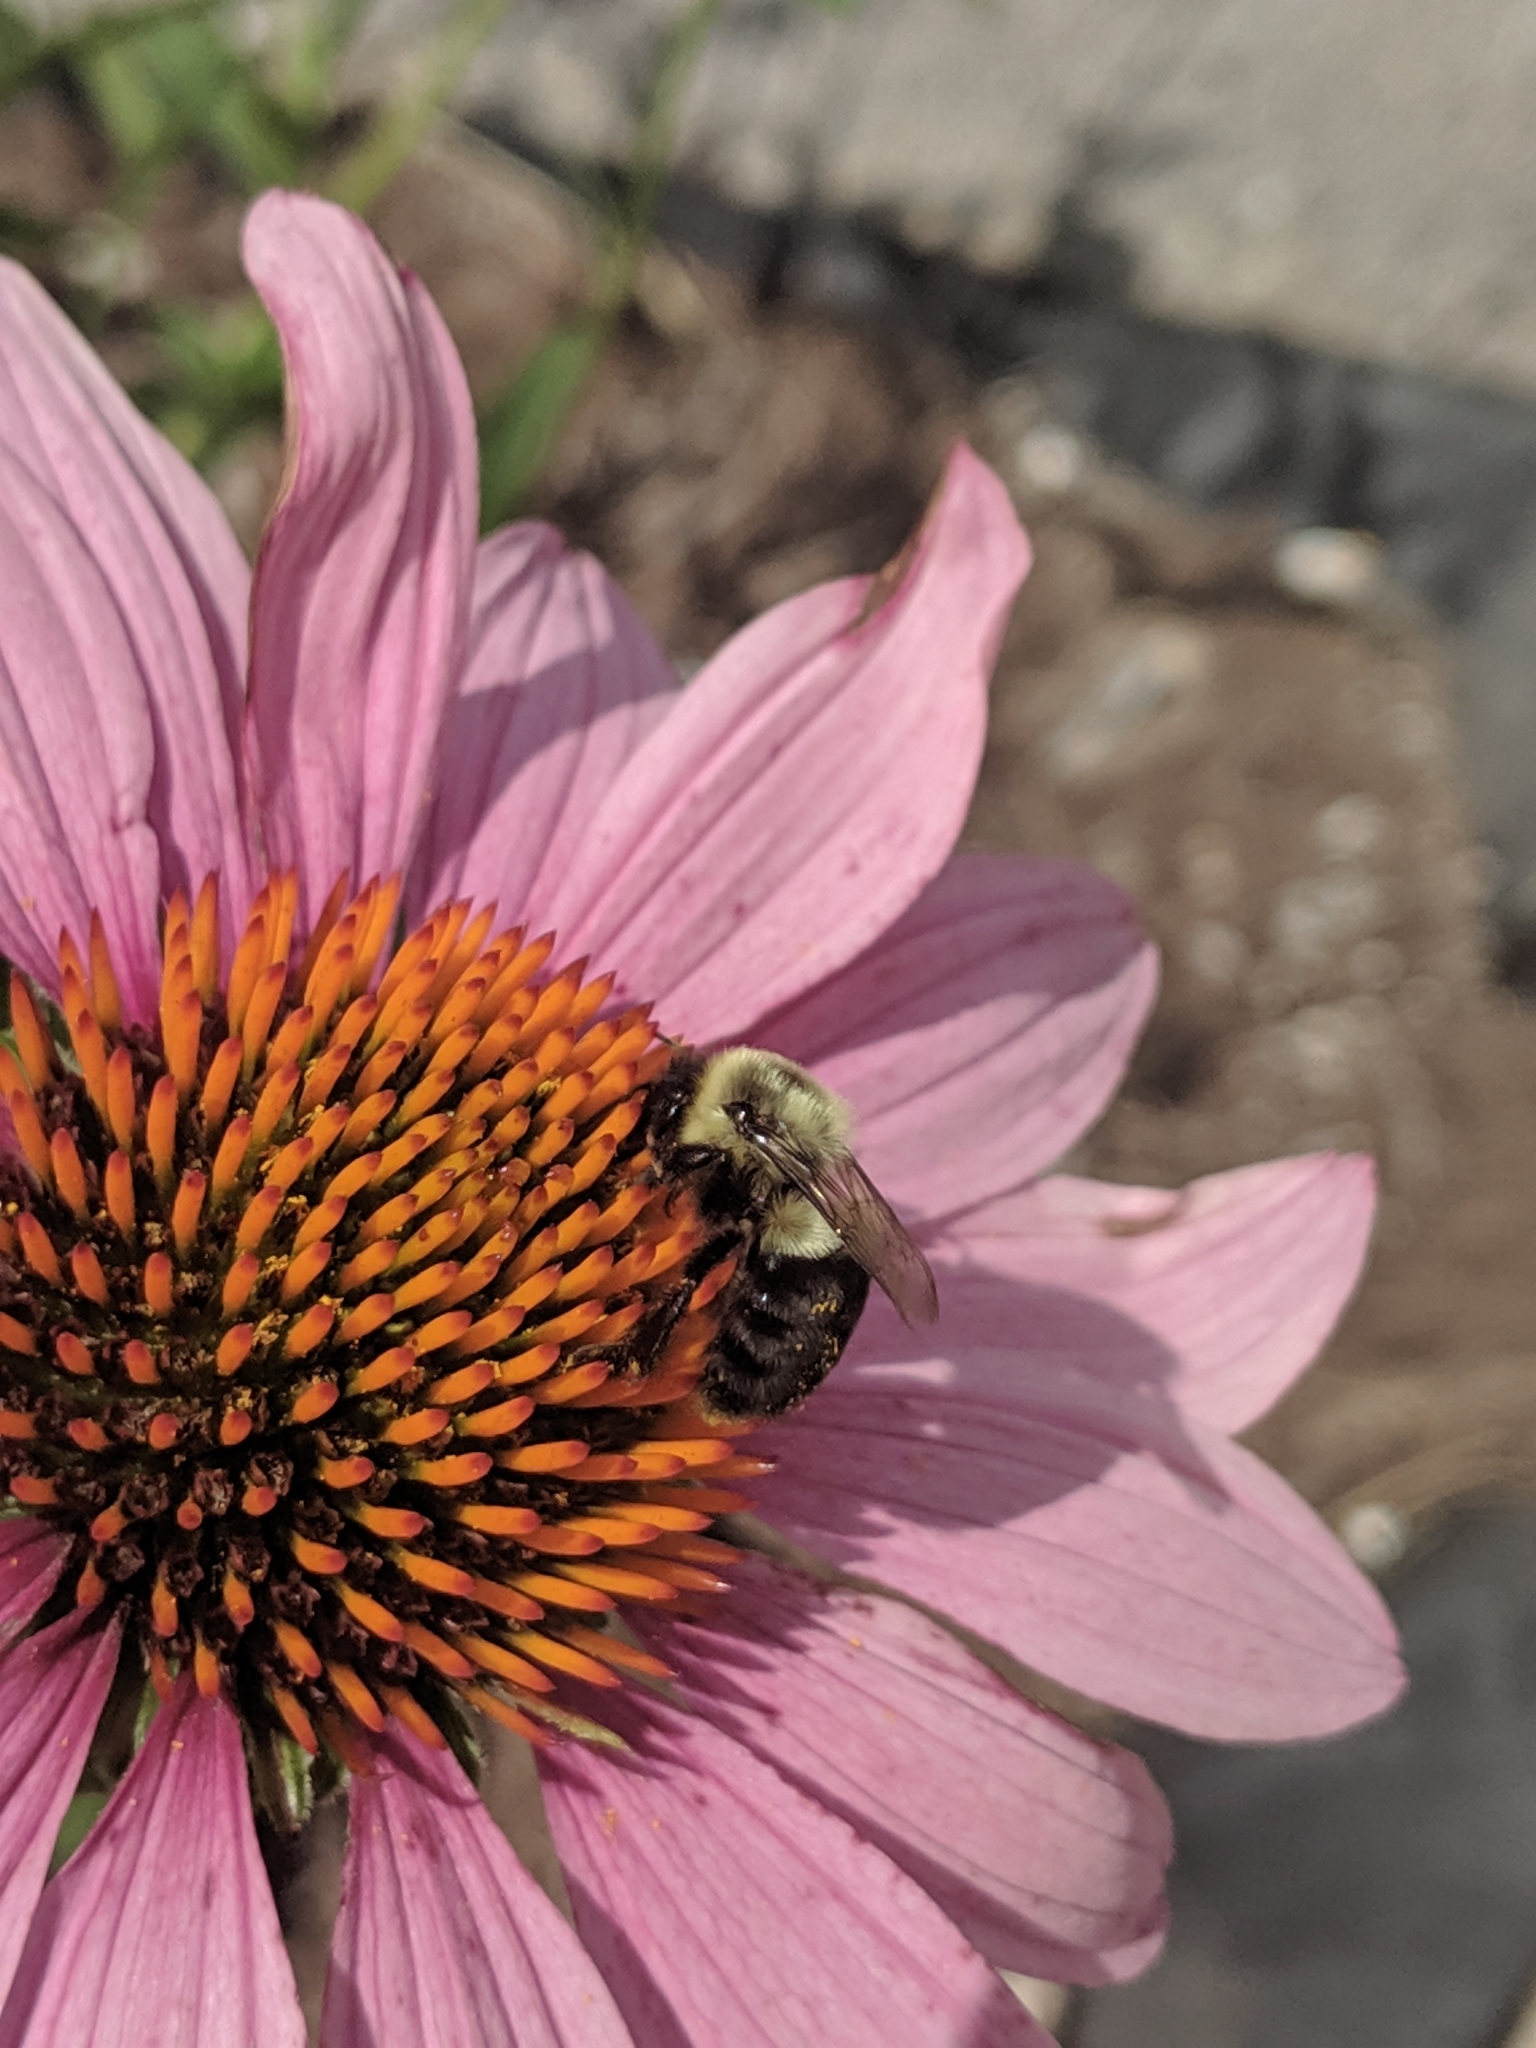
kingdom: Animalia
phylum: Arthropoda
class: Insecta
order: Hymenoptera
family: Apidae
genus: Bombus
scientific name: Bombus impatiens
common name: Common eastern bumble bee
